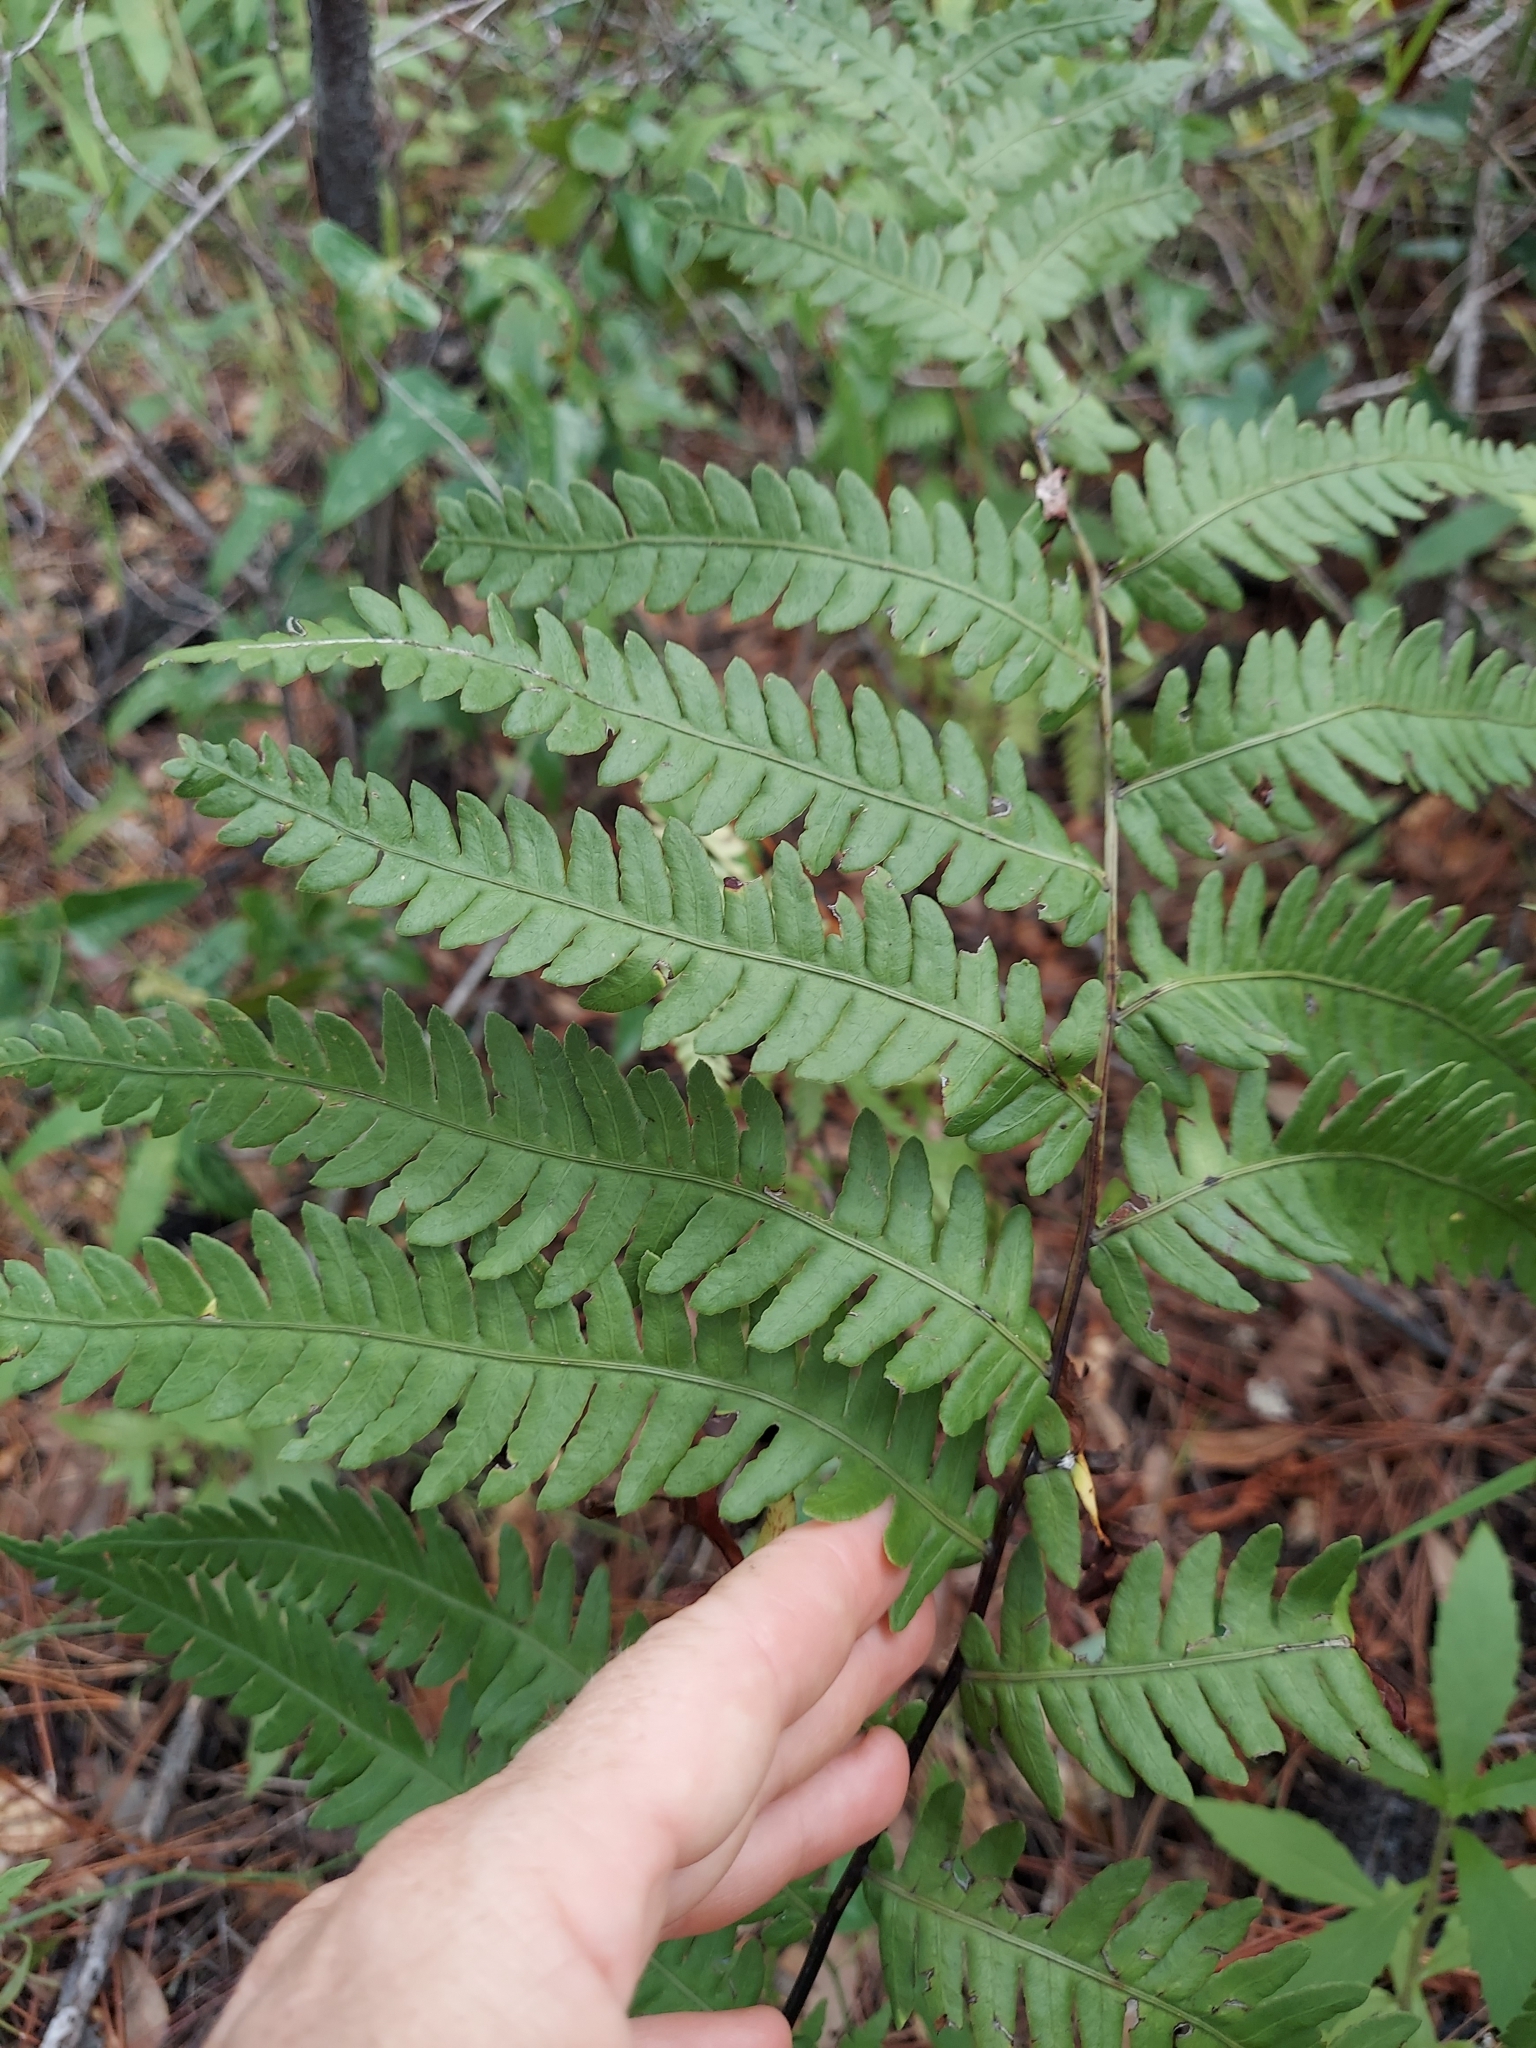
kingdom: Plantae
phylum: Tracheophyta
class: Polypodiopsida
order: Polypodiales
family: Blechnaceae
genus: Anchistea
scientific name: Anchistea virginica
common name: Virginia chain fern
